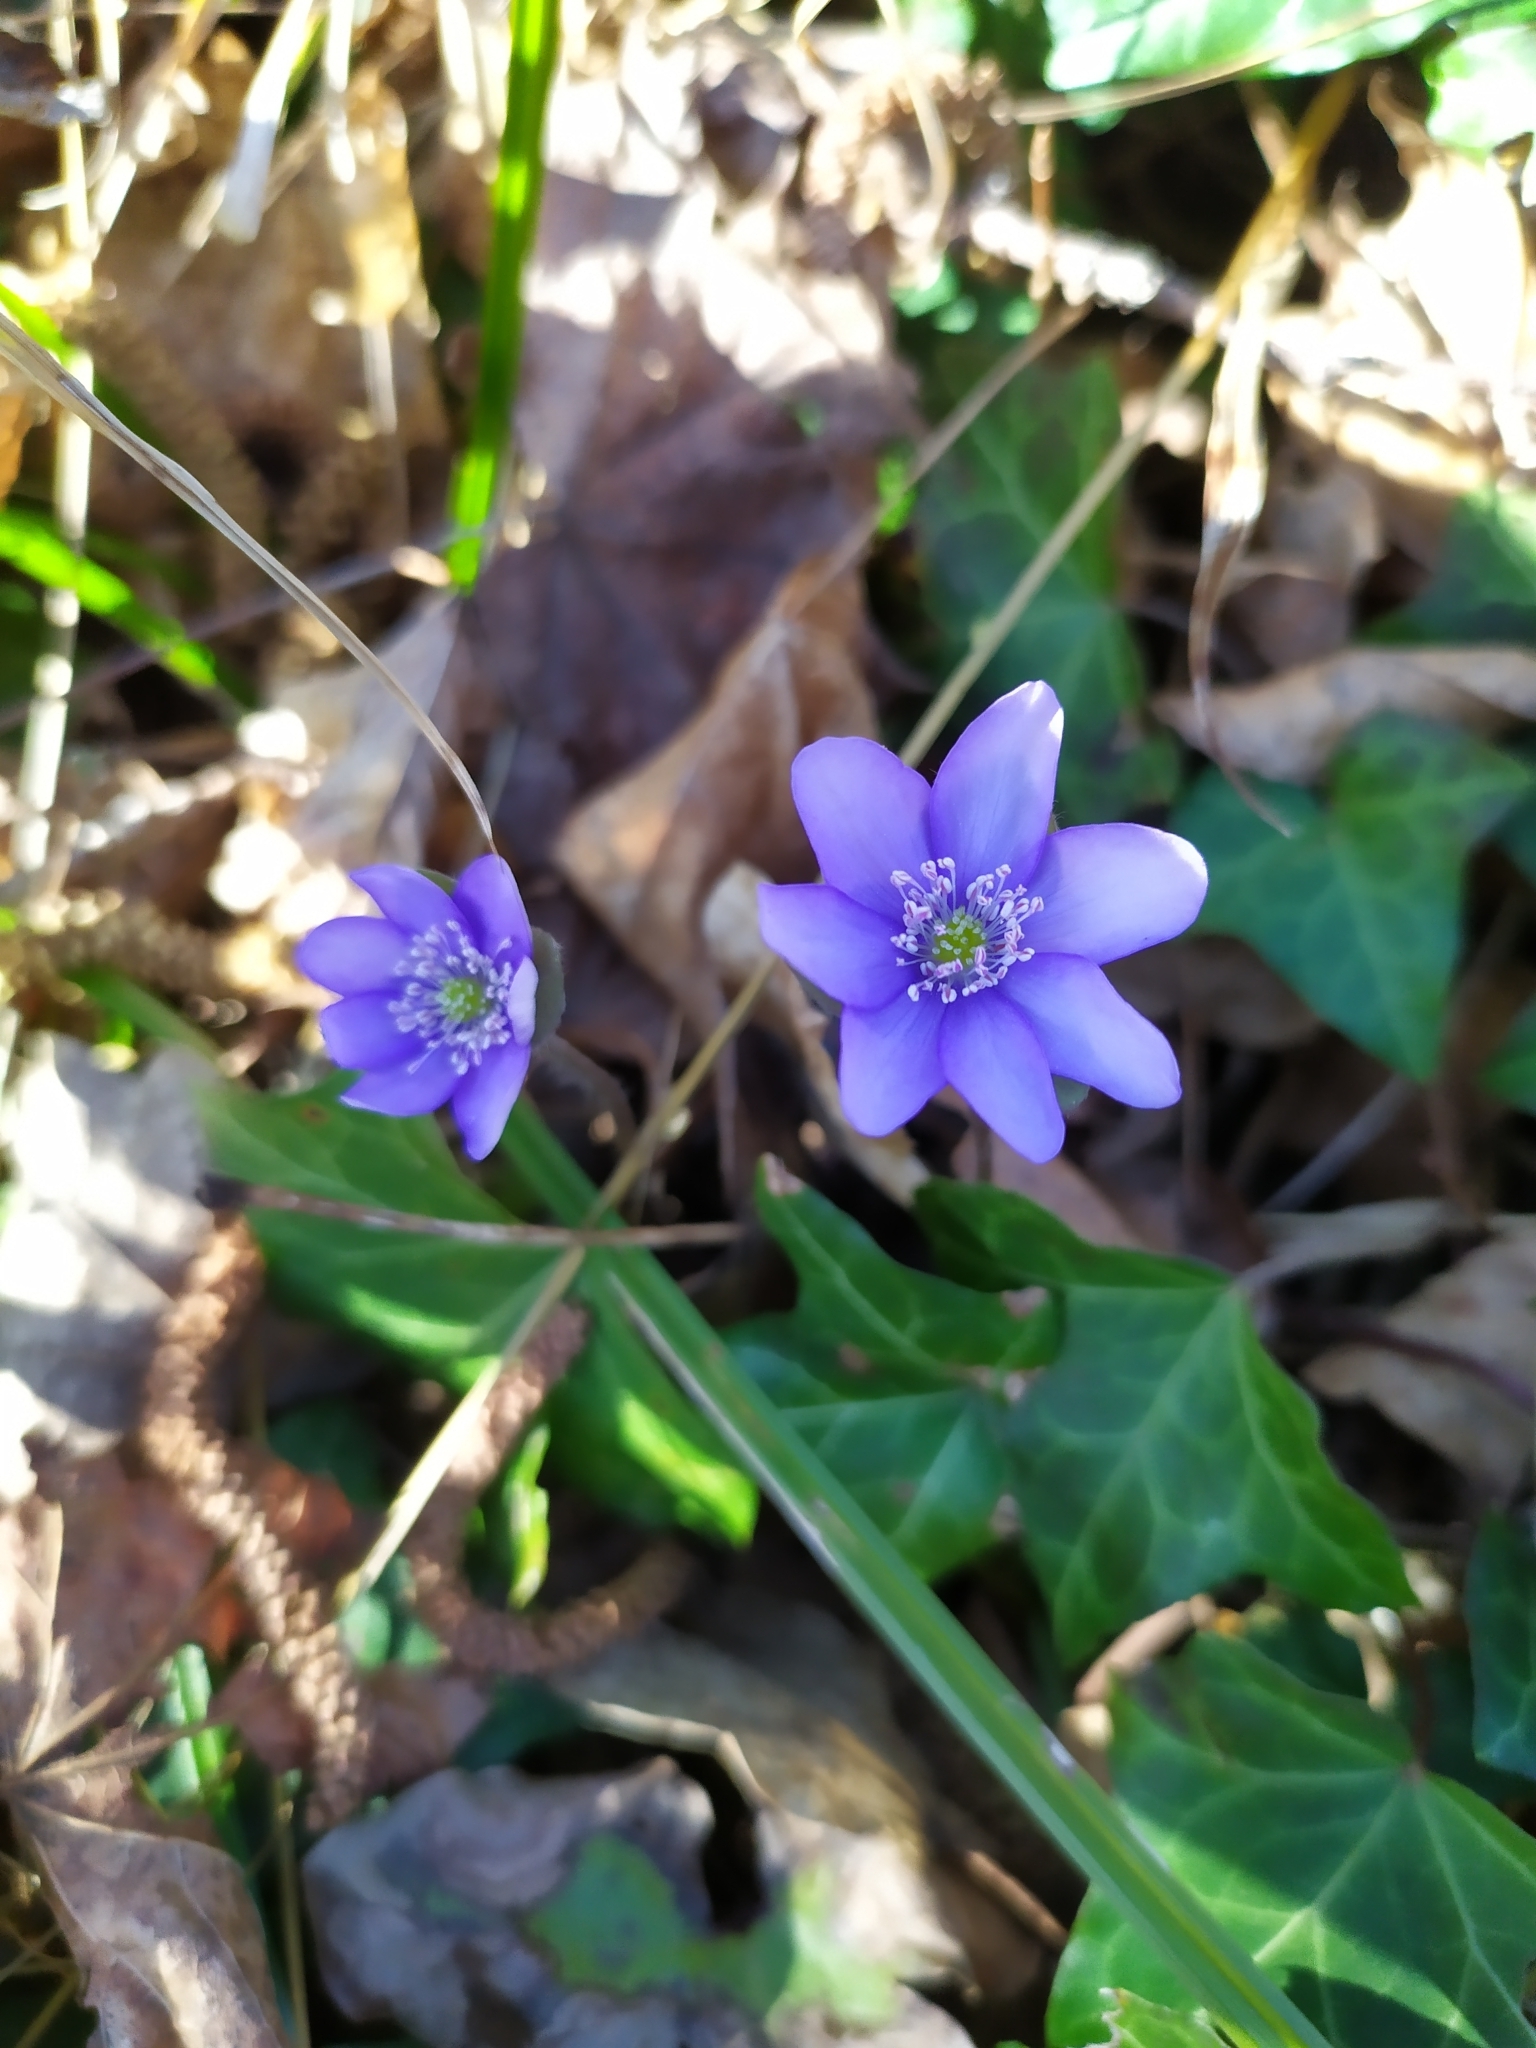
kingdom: Plantae
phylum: Tracheophyta
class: Magnoliopsida
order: Ranunculales
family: Ranunculaceae
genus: Hepatica
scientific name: Hepatica nobilis
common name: Liverleaf
